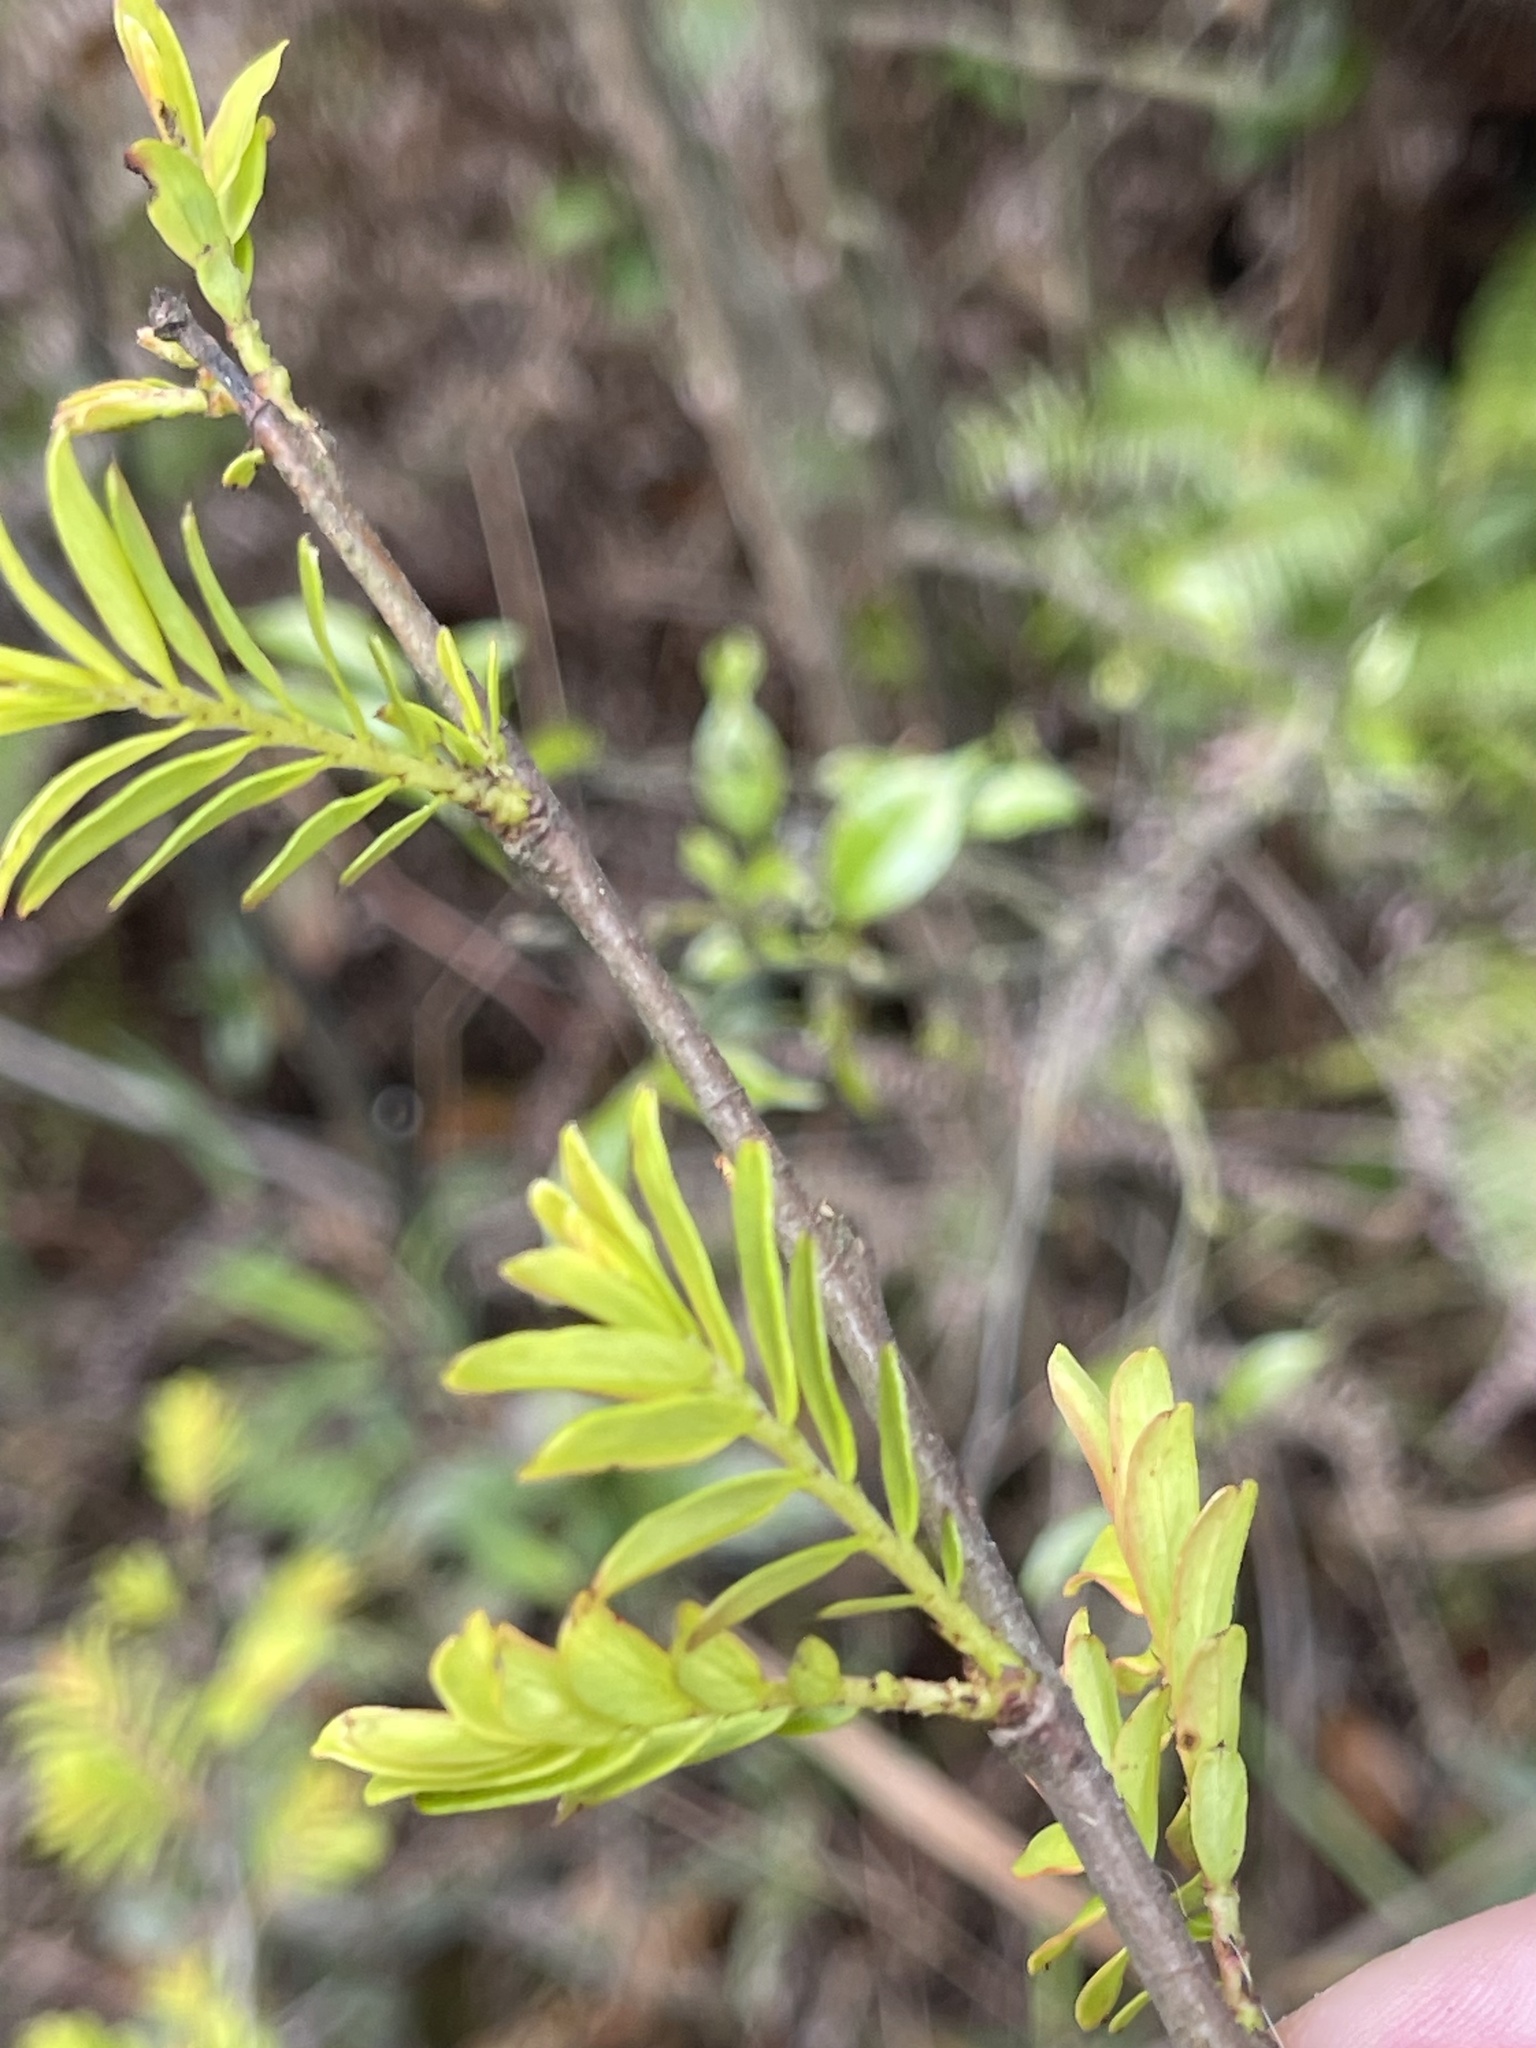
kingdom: Plantae
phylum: Tracheophyta
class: Magnoliopsida
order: Malpighiales
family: Phyllanthaceae
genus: Phyllanthus
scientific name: Phyllanthus emblica
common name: Indian gooseberry
